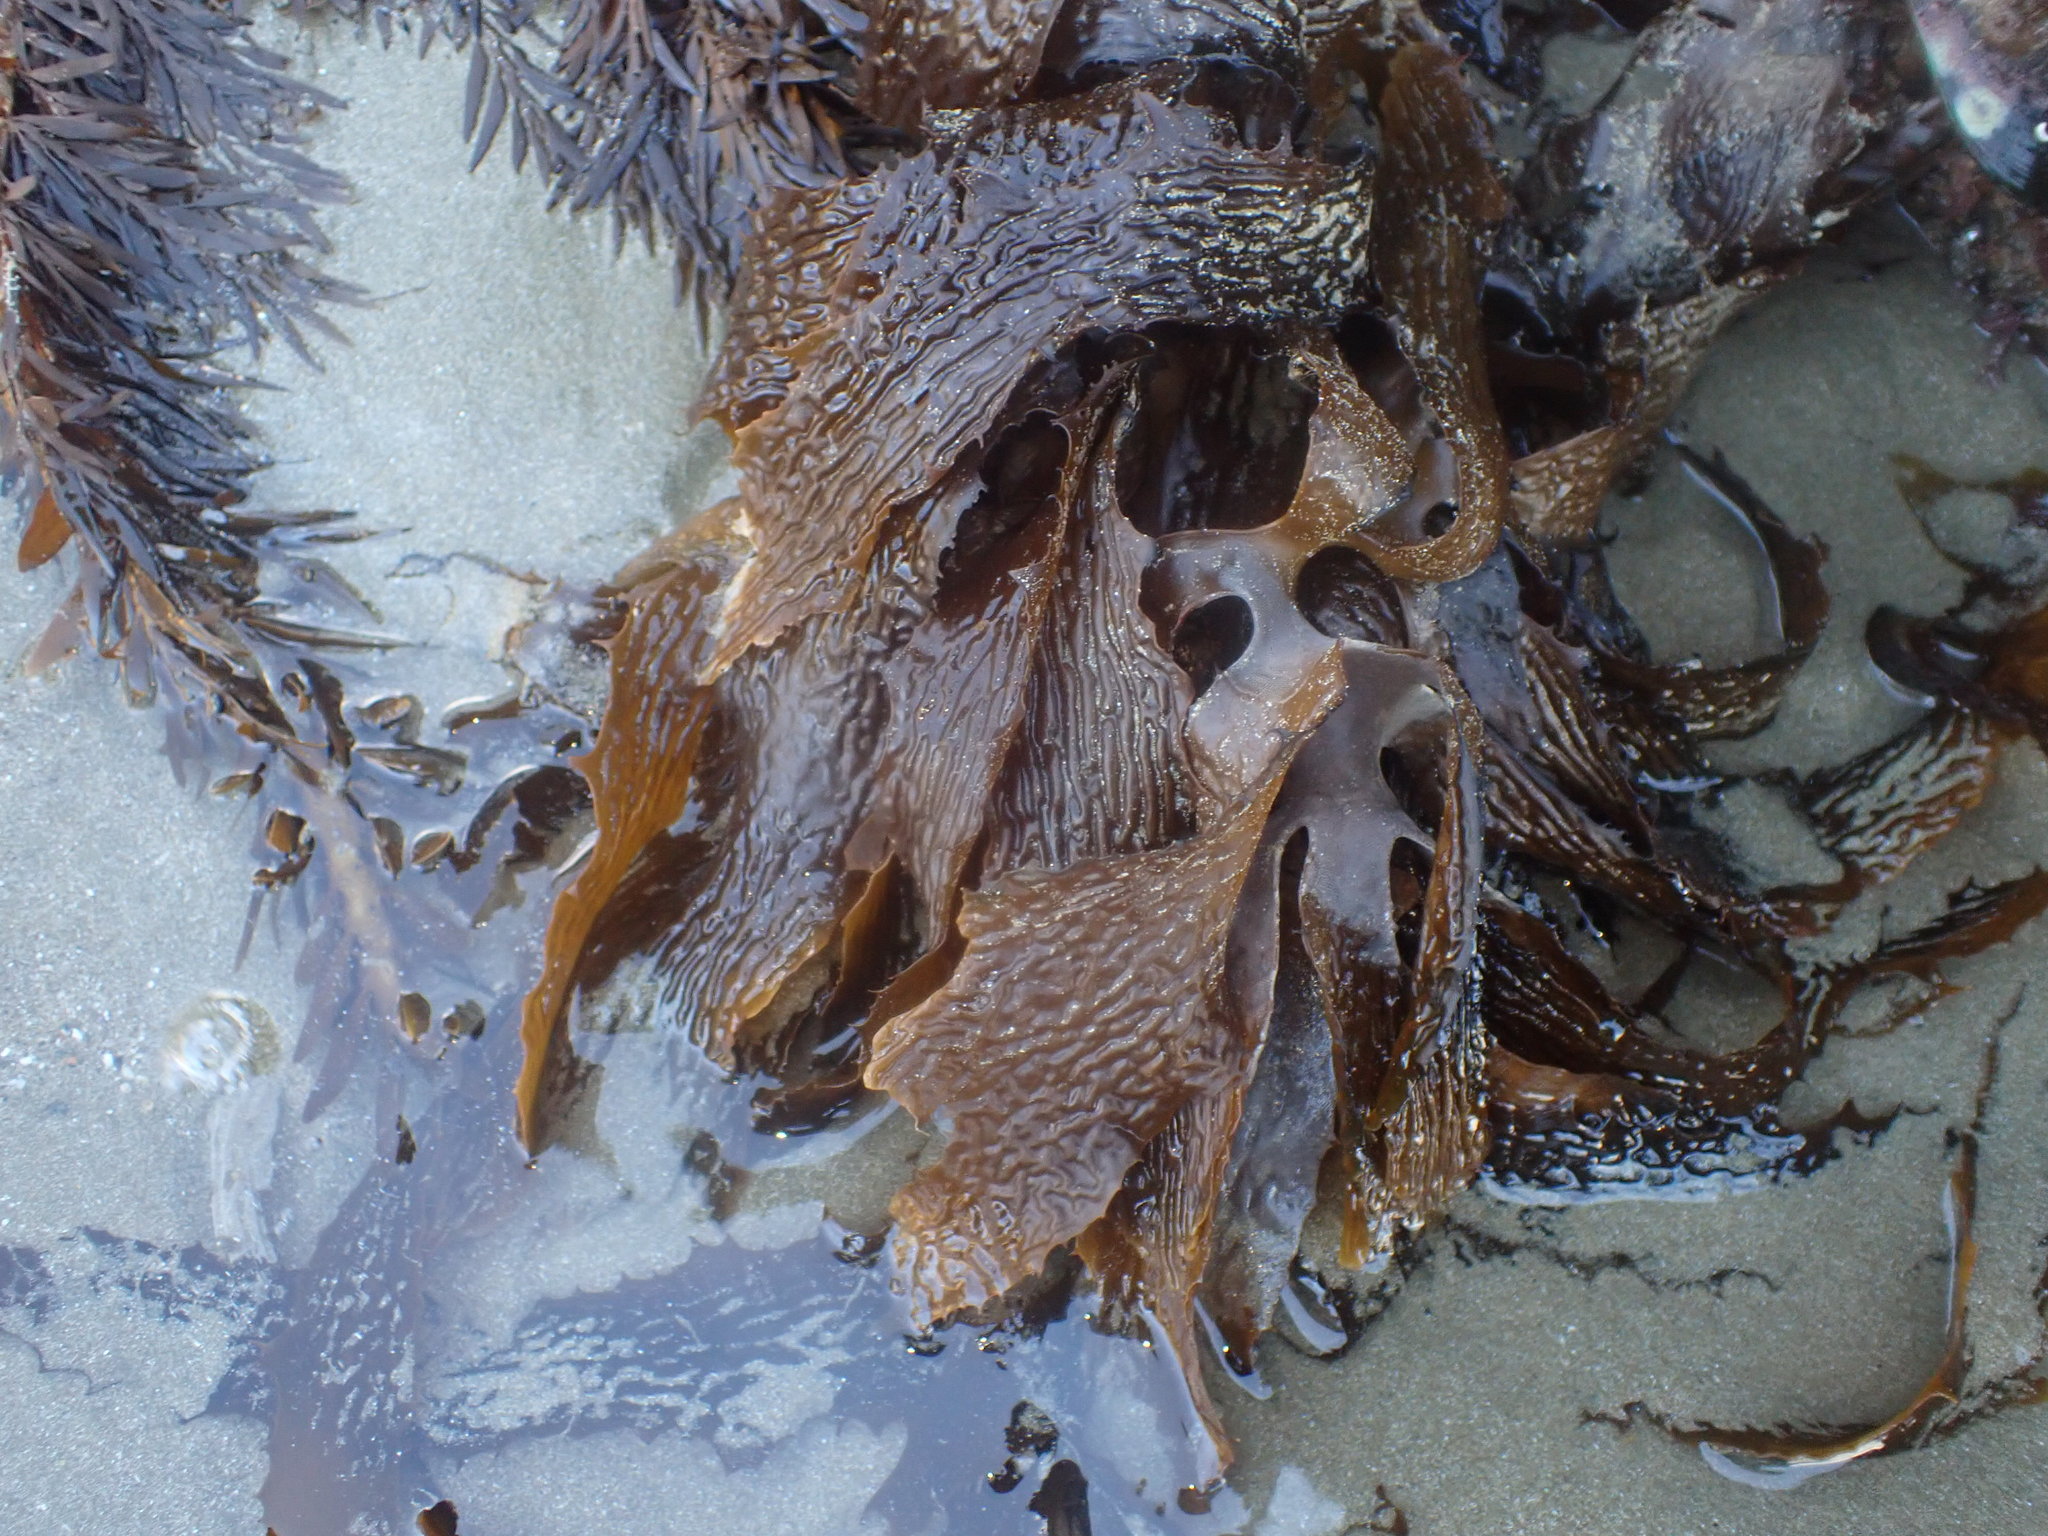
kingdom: Chromista
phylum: Ochrophyta
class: Phaeophyceae
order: Laminariales
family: Lessoniaceae
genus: Ecklonia
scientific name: Ecklonia radiata
